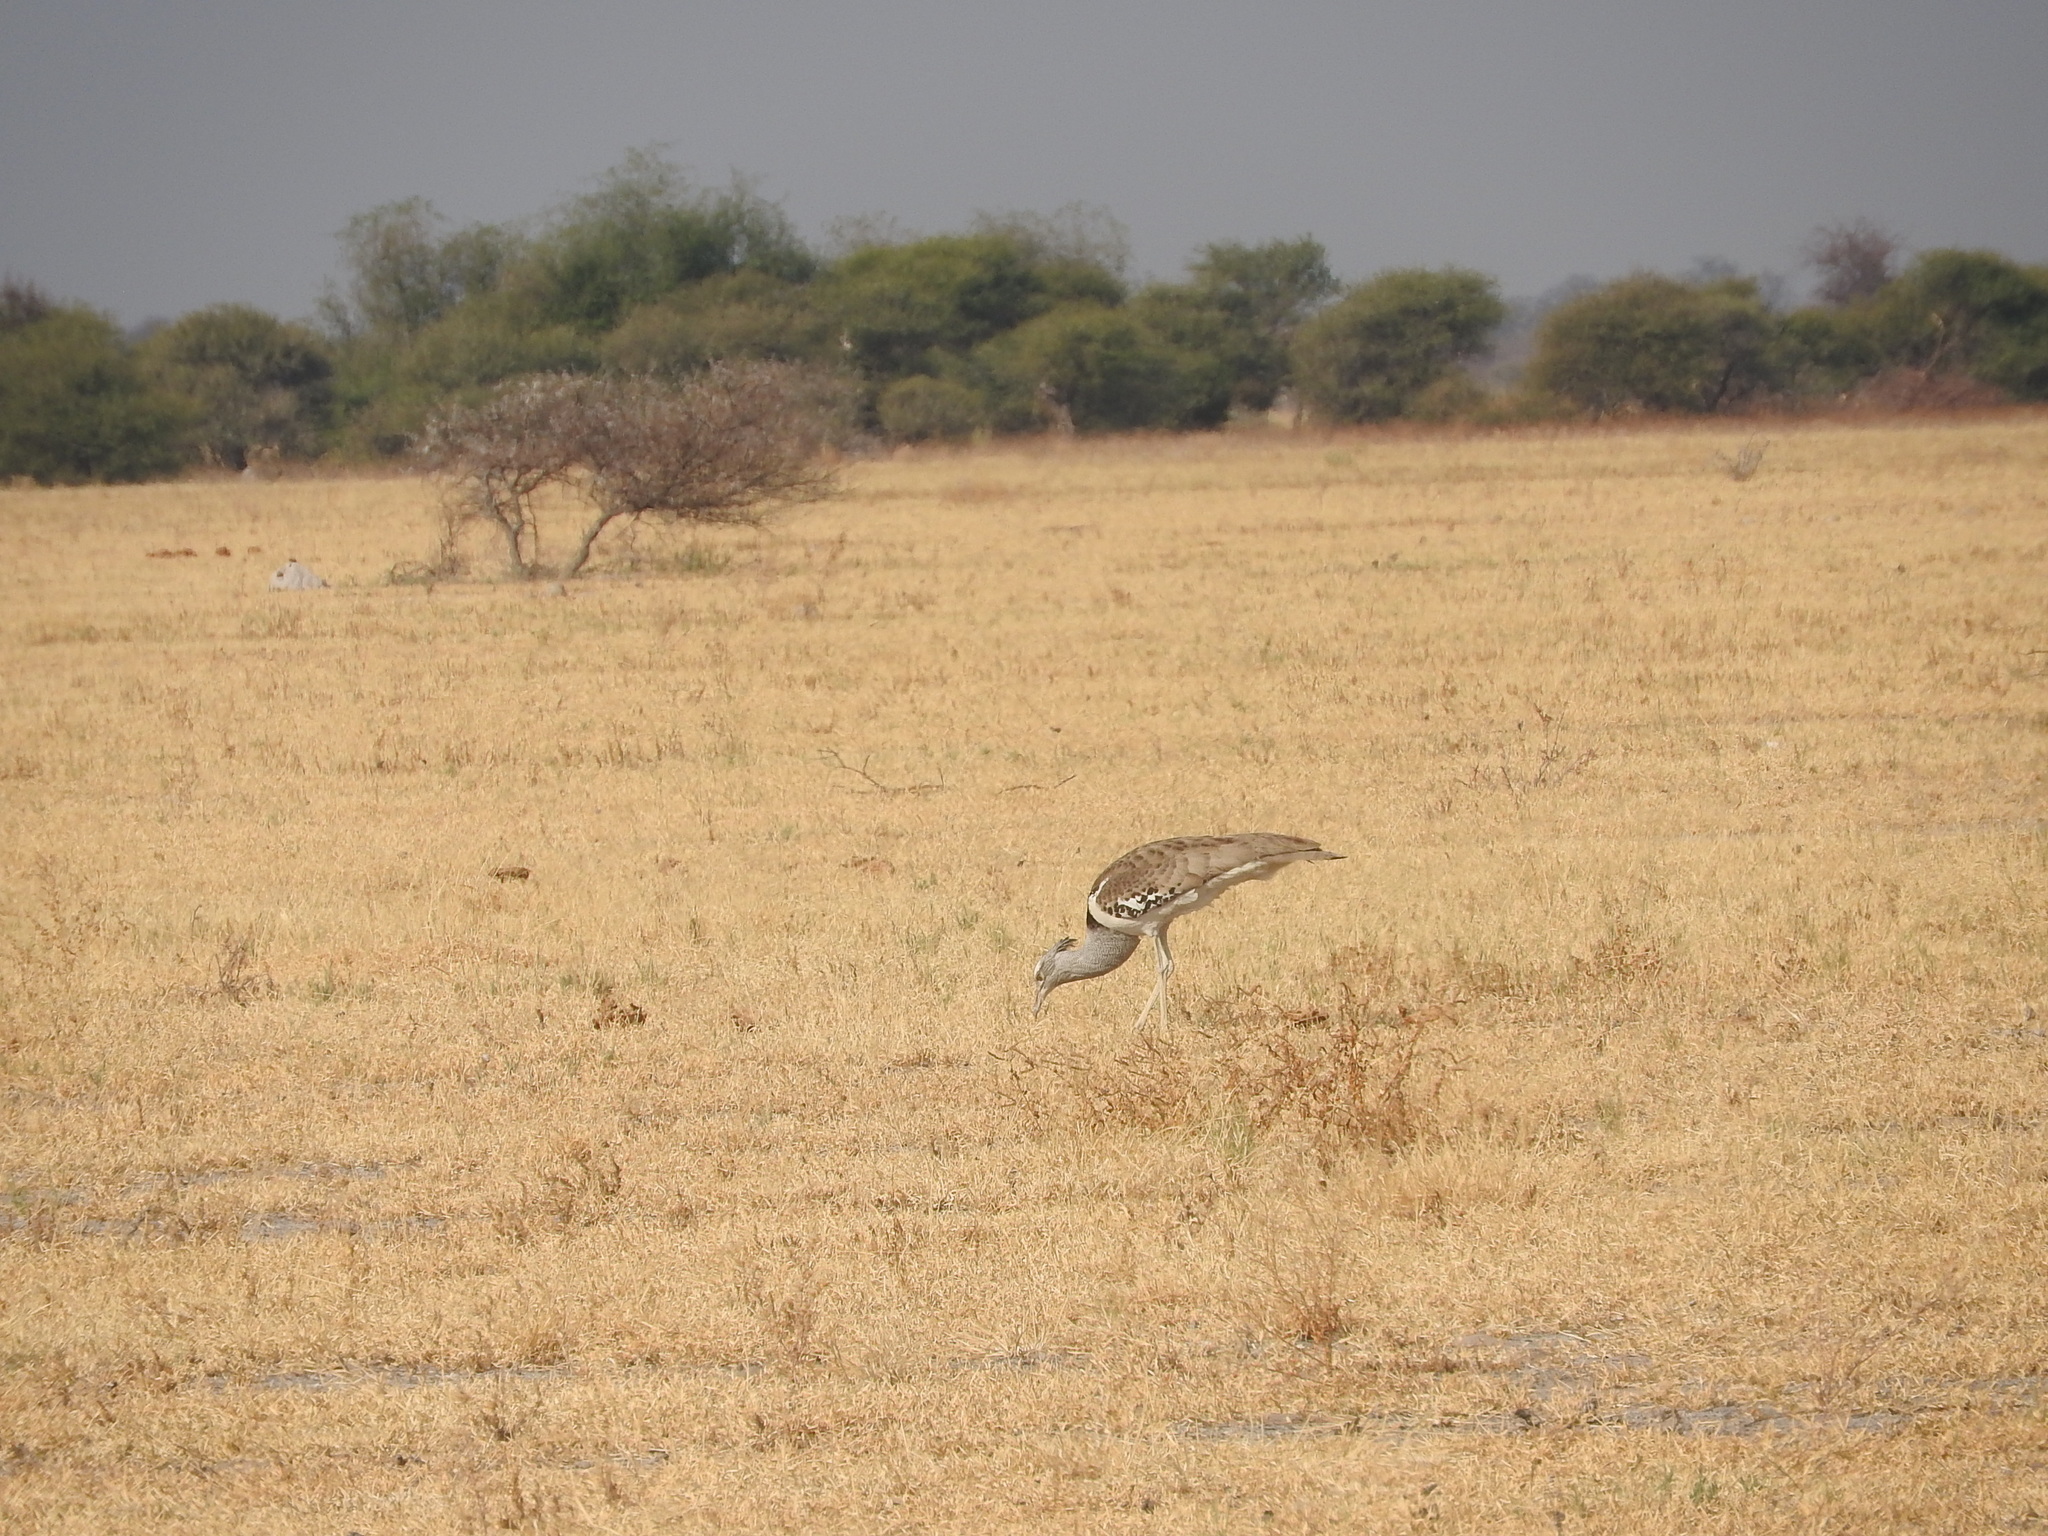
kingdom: Animalia
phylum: Chordata
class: Aves
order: Otidiformes
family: Otididae
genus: Ardeotis
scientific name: Ardeotis kori
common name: Kori bustard
